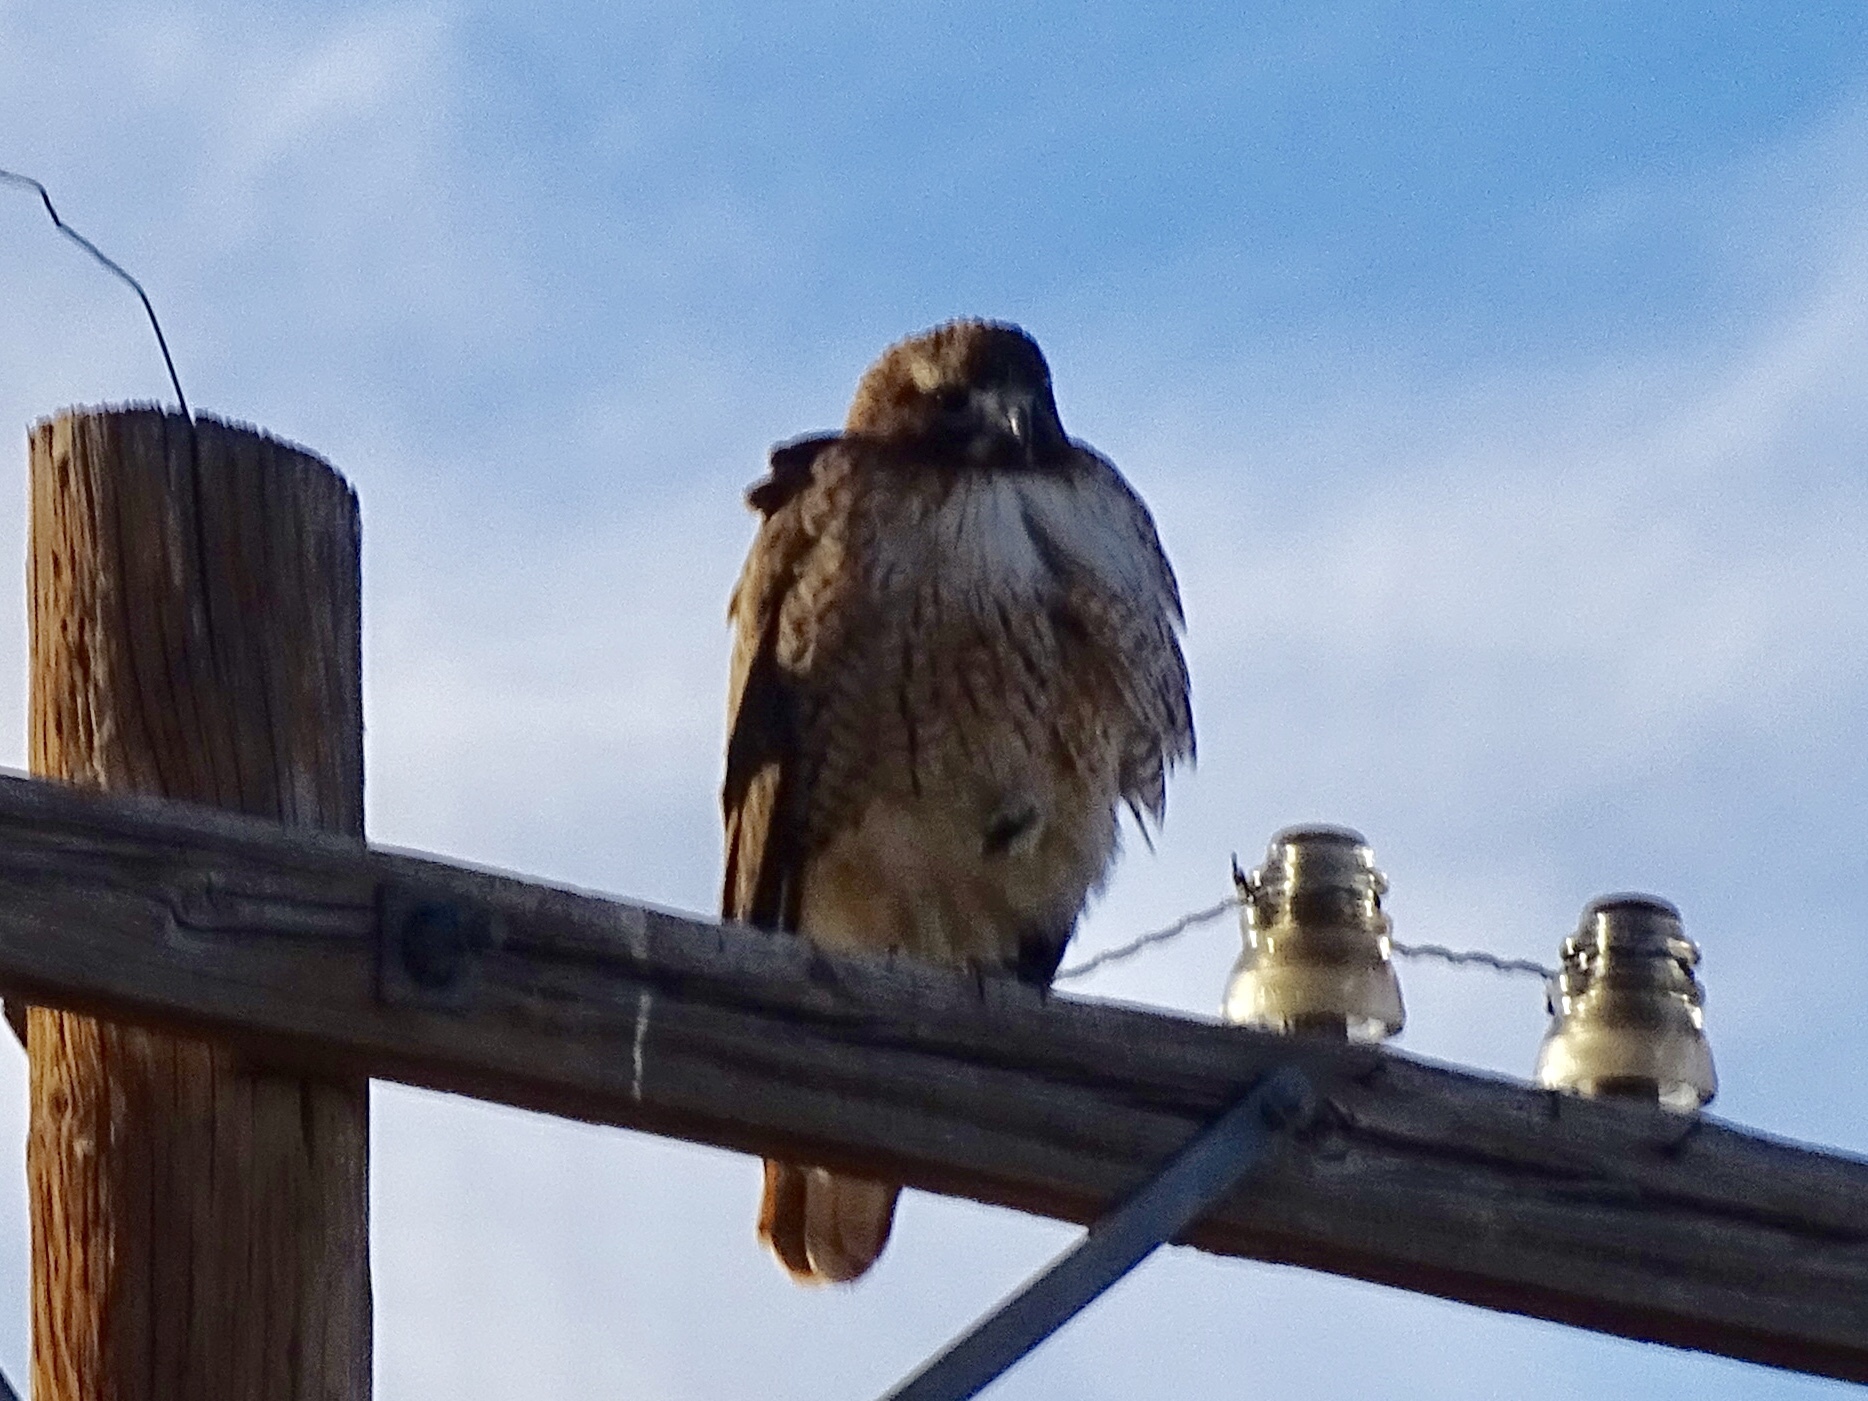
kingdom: Animalia
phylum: Chordata
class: Aves
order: Accipitriformes
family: Accipitridae
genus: Buteo
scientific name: Buteo jamaicensis
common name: Red-tailed hawk
